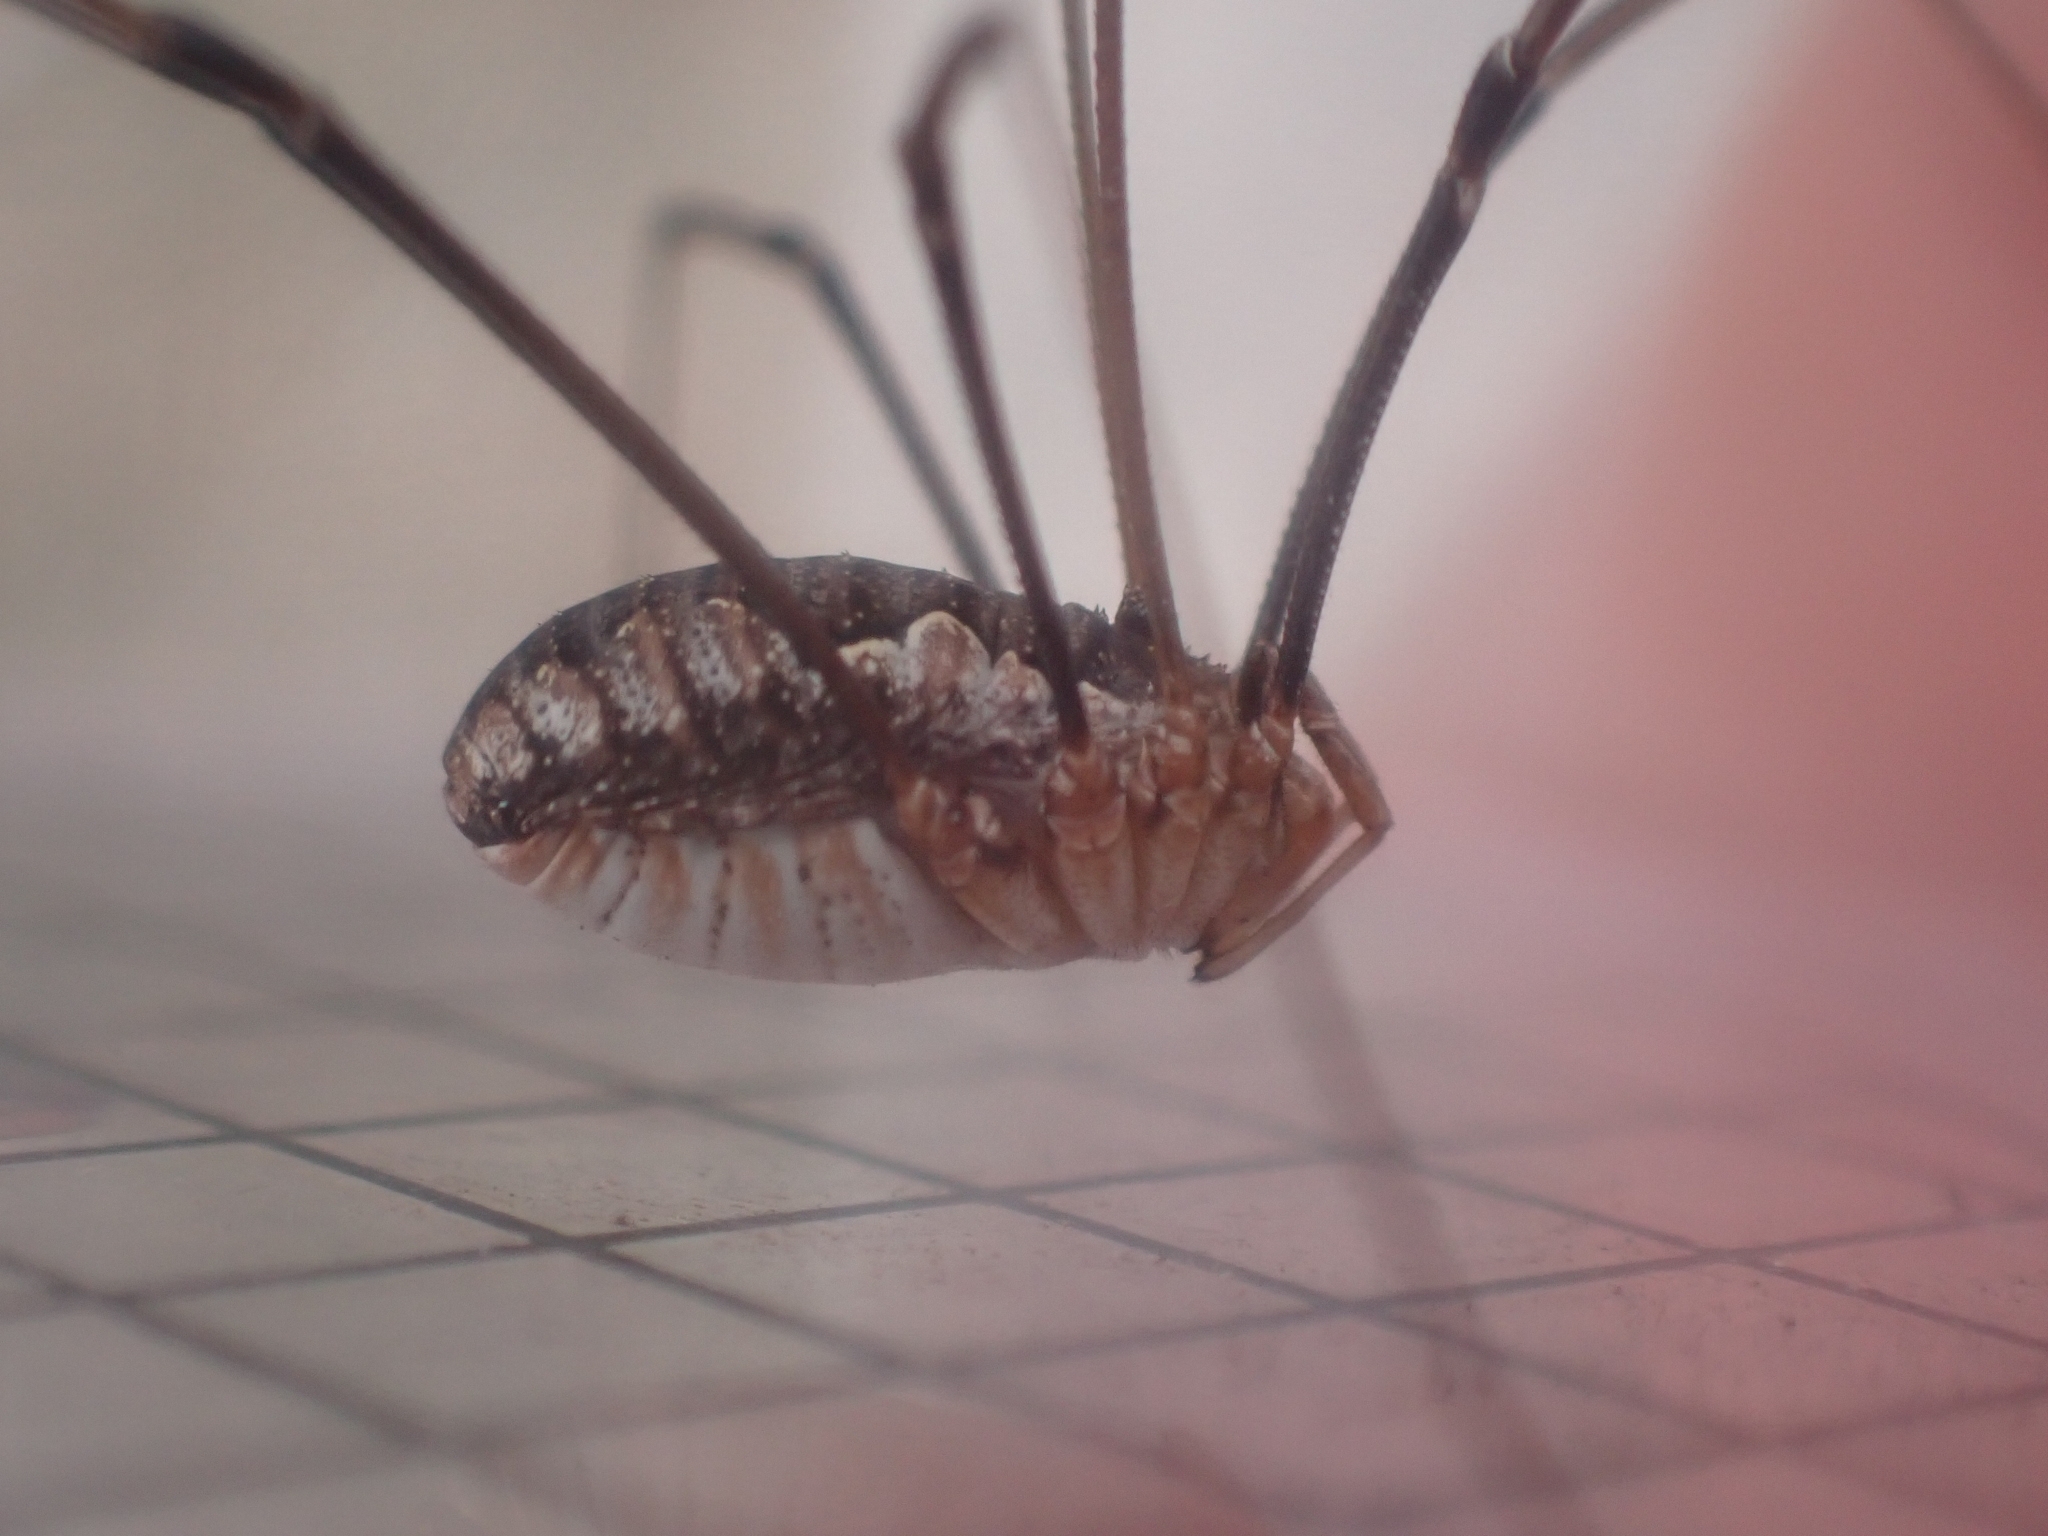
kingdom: Animalia
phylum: Arthropoda
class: Arachnida
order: Opiliones
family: Phalangiidae
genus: Phalangium
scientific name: Phalangium opilio
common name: Daddy longleg
